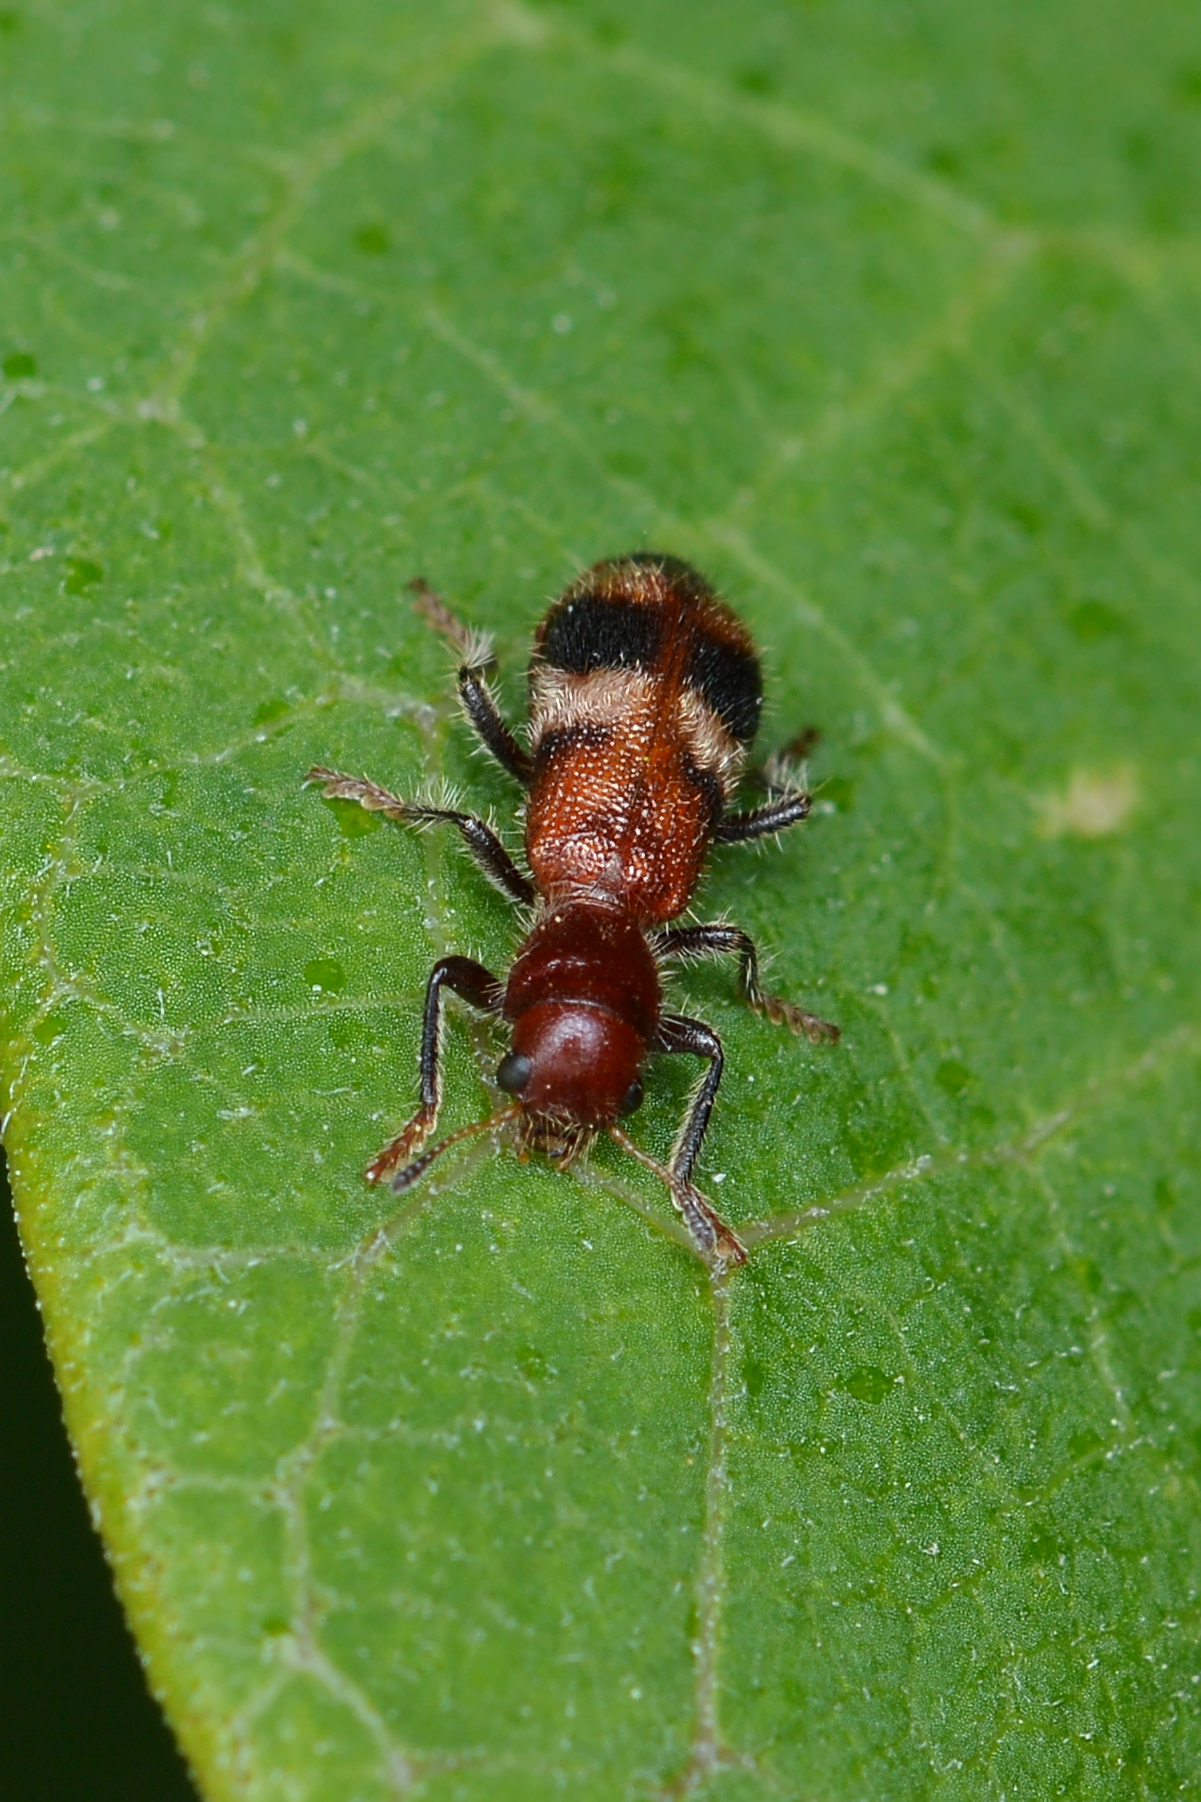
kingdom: Animalia
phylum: Arthropoda
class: Insecta
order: Coleoptera
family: Cleridae
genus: Enoclerus
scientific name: Enoclerus rosmarus
